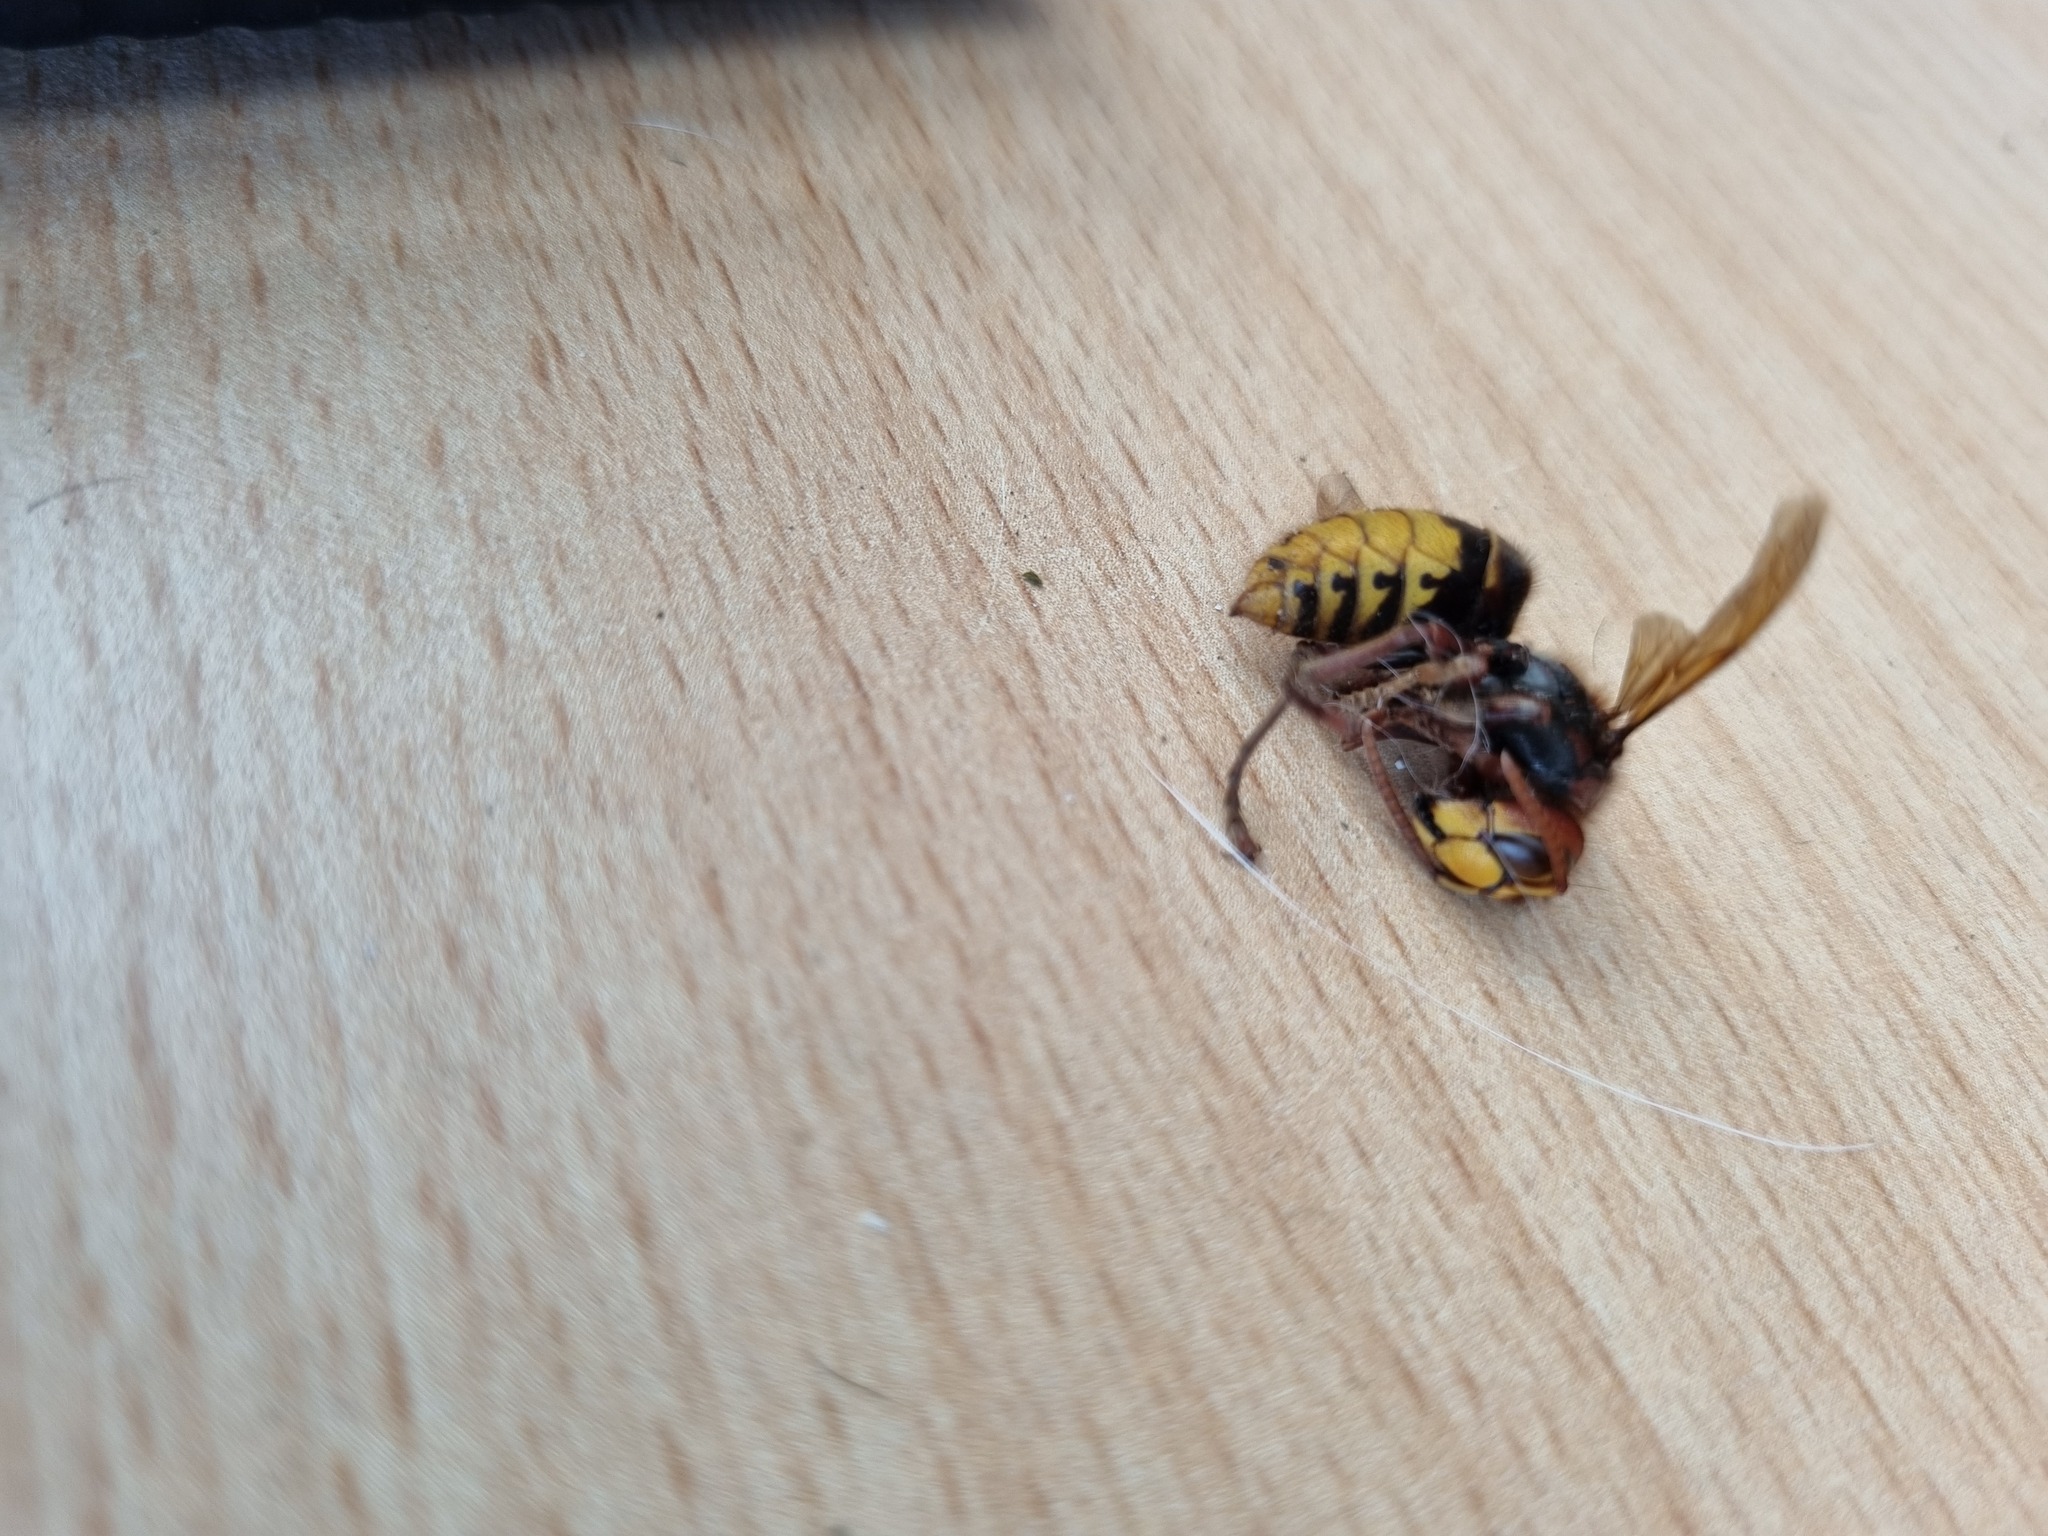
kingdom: Animalia
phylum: Arthropoda
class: Insecta
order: Hymenoptera
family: Vespidae
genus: Vespa
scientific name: Vespa crabro
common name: Hornet
